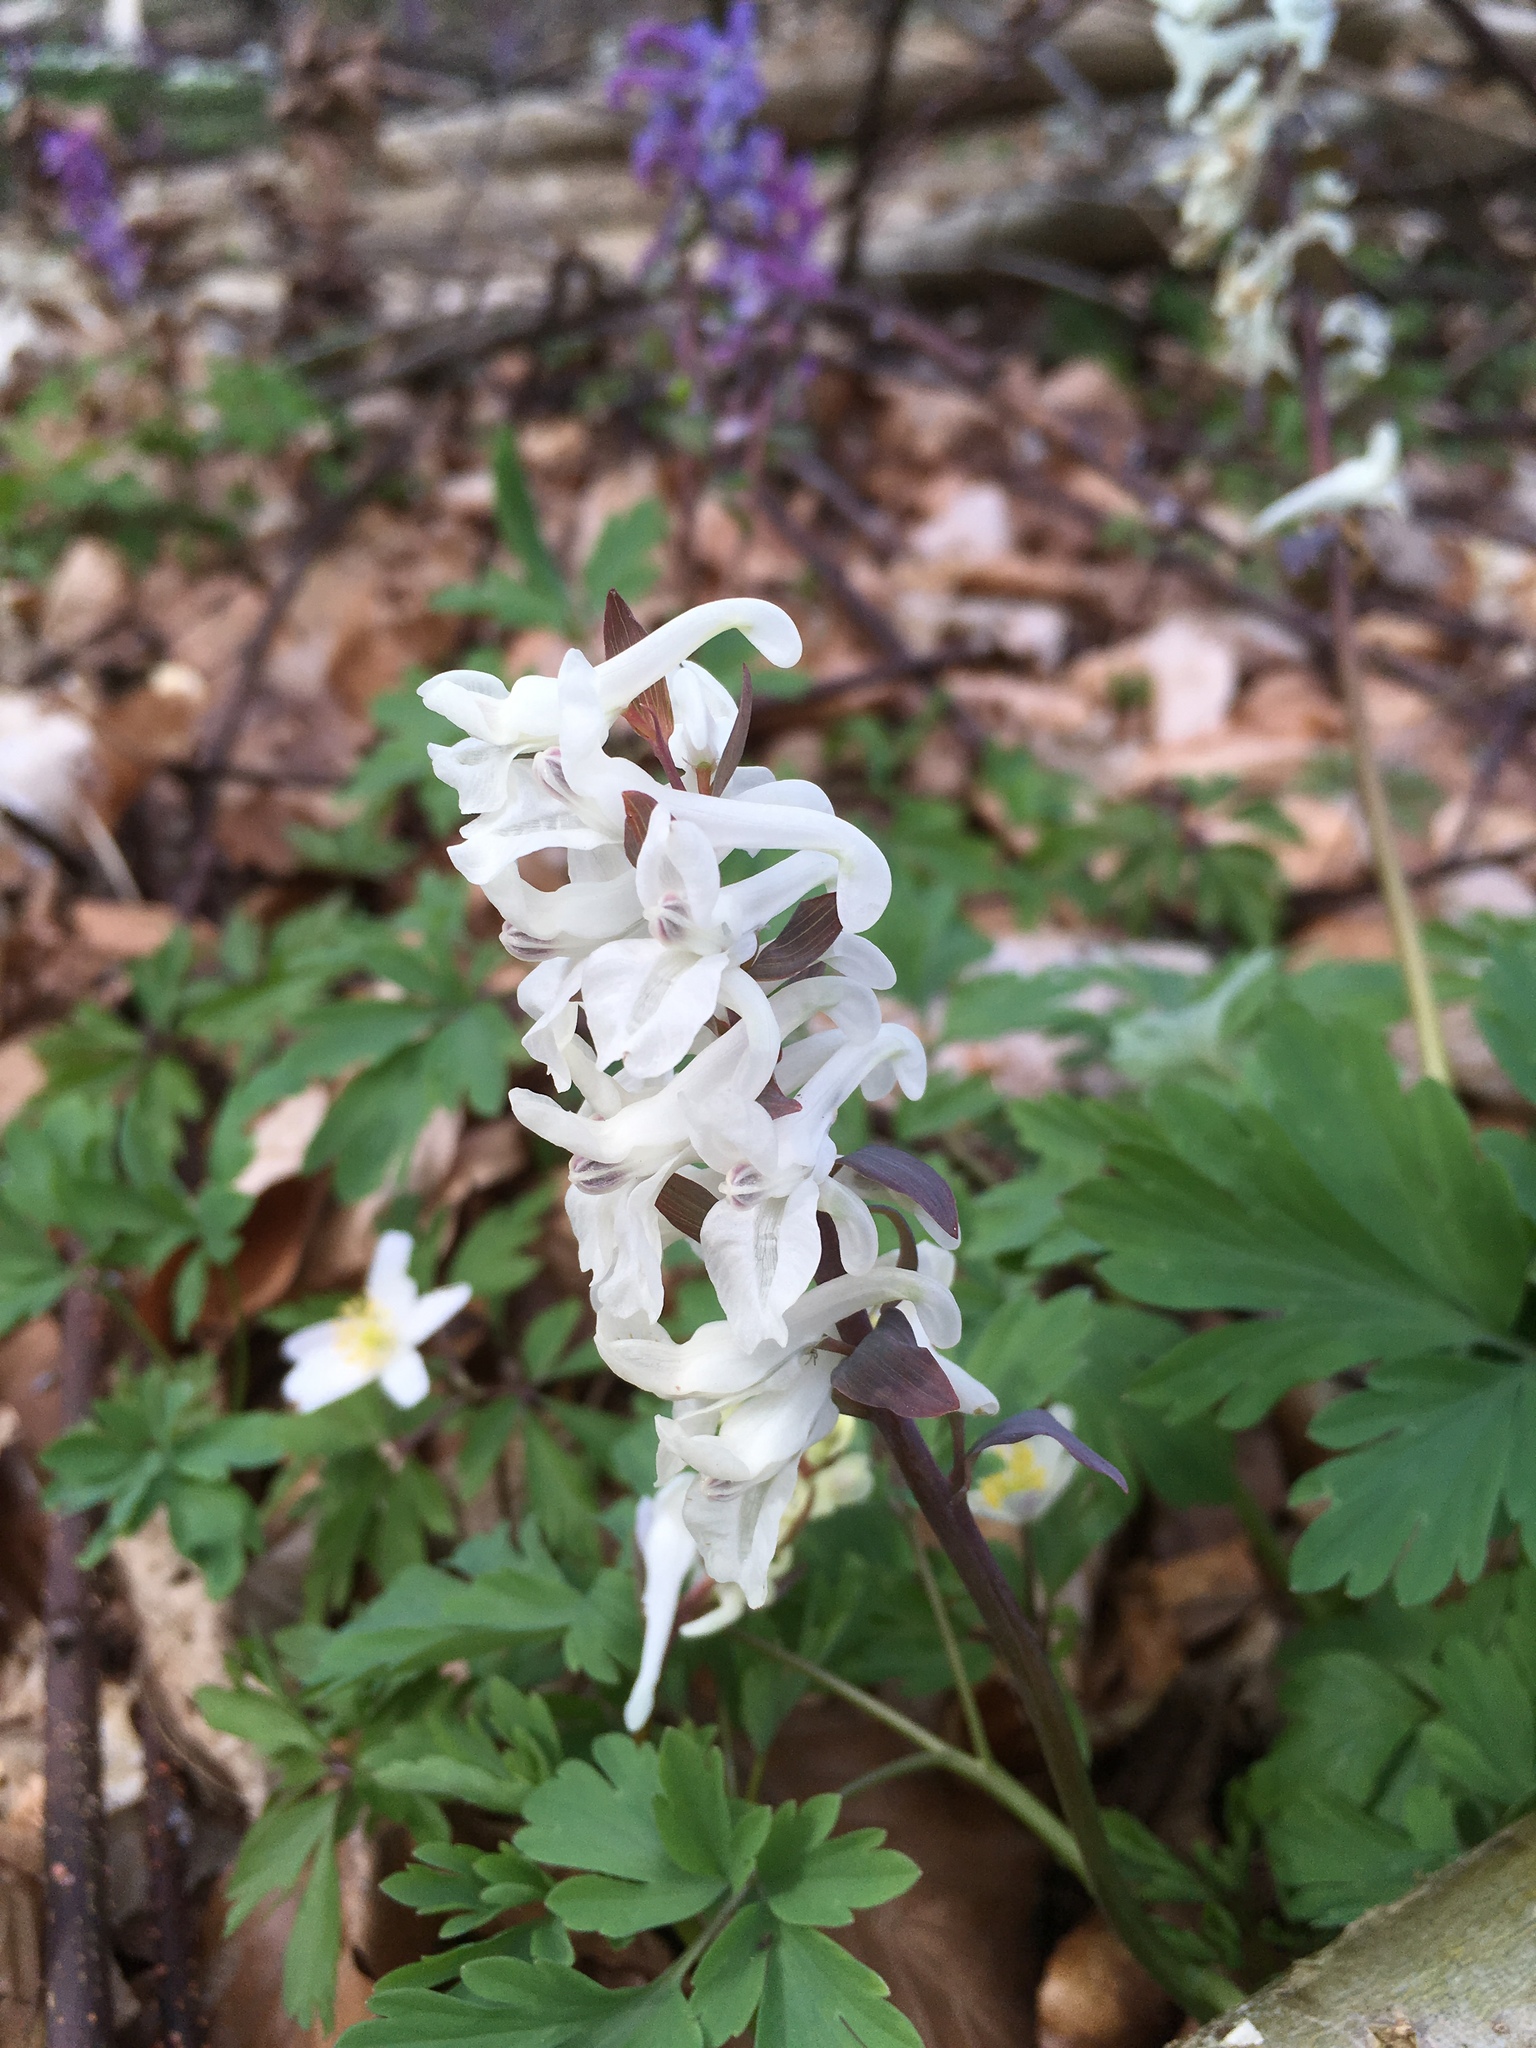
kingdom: Plantae
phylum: Tracheophyta
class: Magnoliopsida
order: Ranunculales
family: Papaveraceae
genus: Corydalis
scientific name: Corydalis cava
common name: Hollowroot
